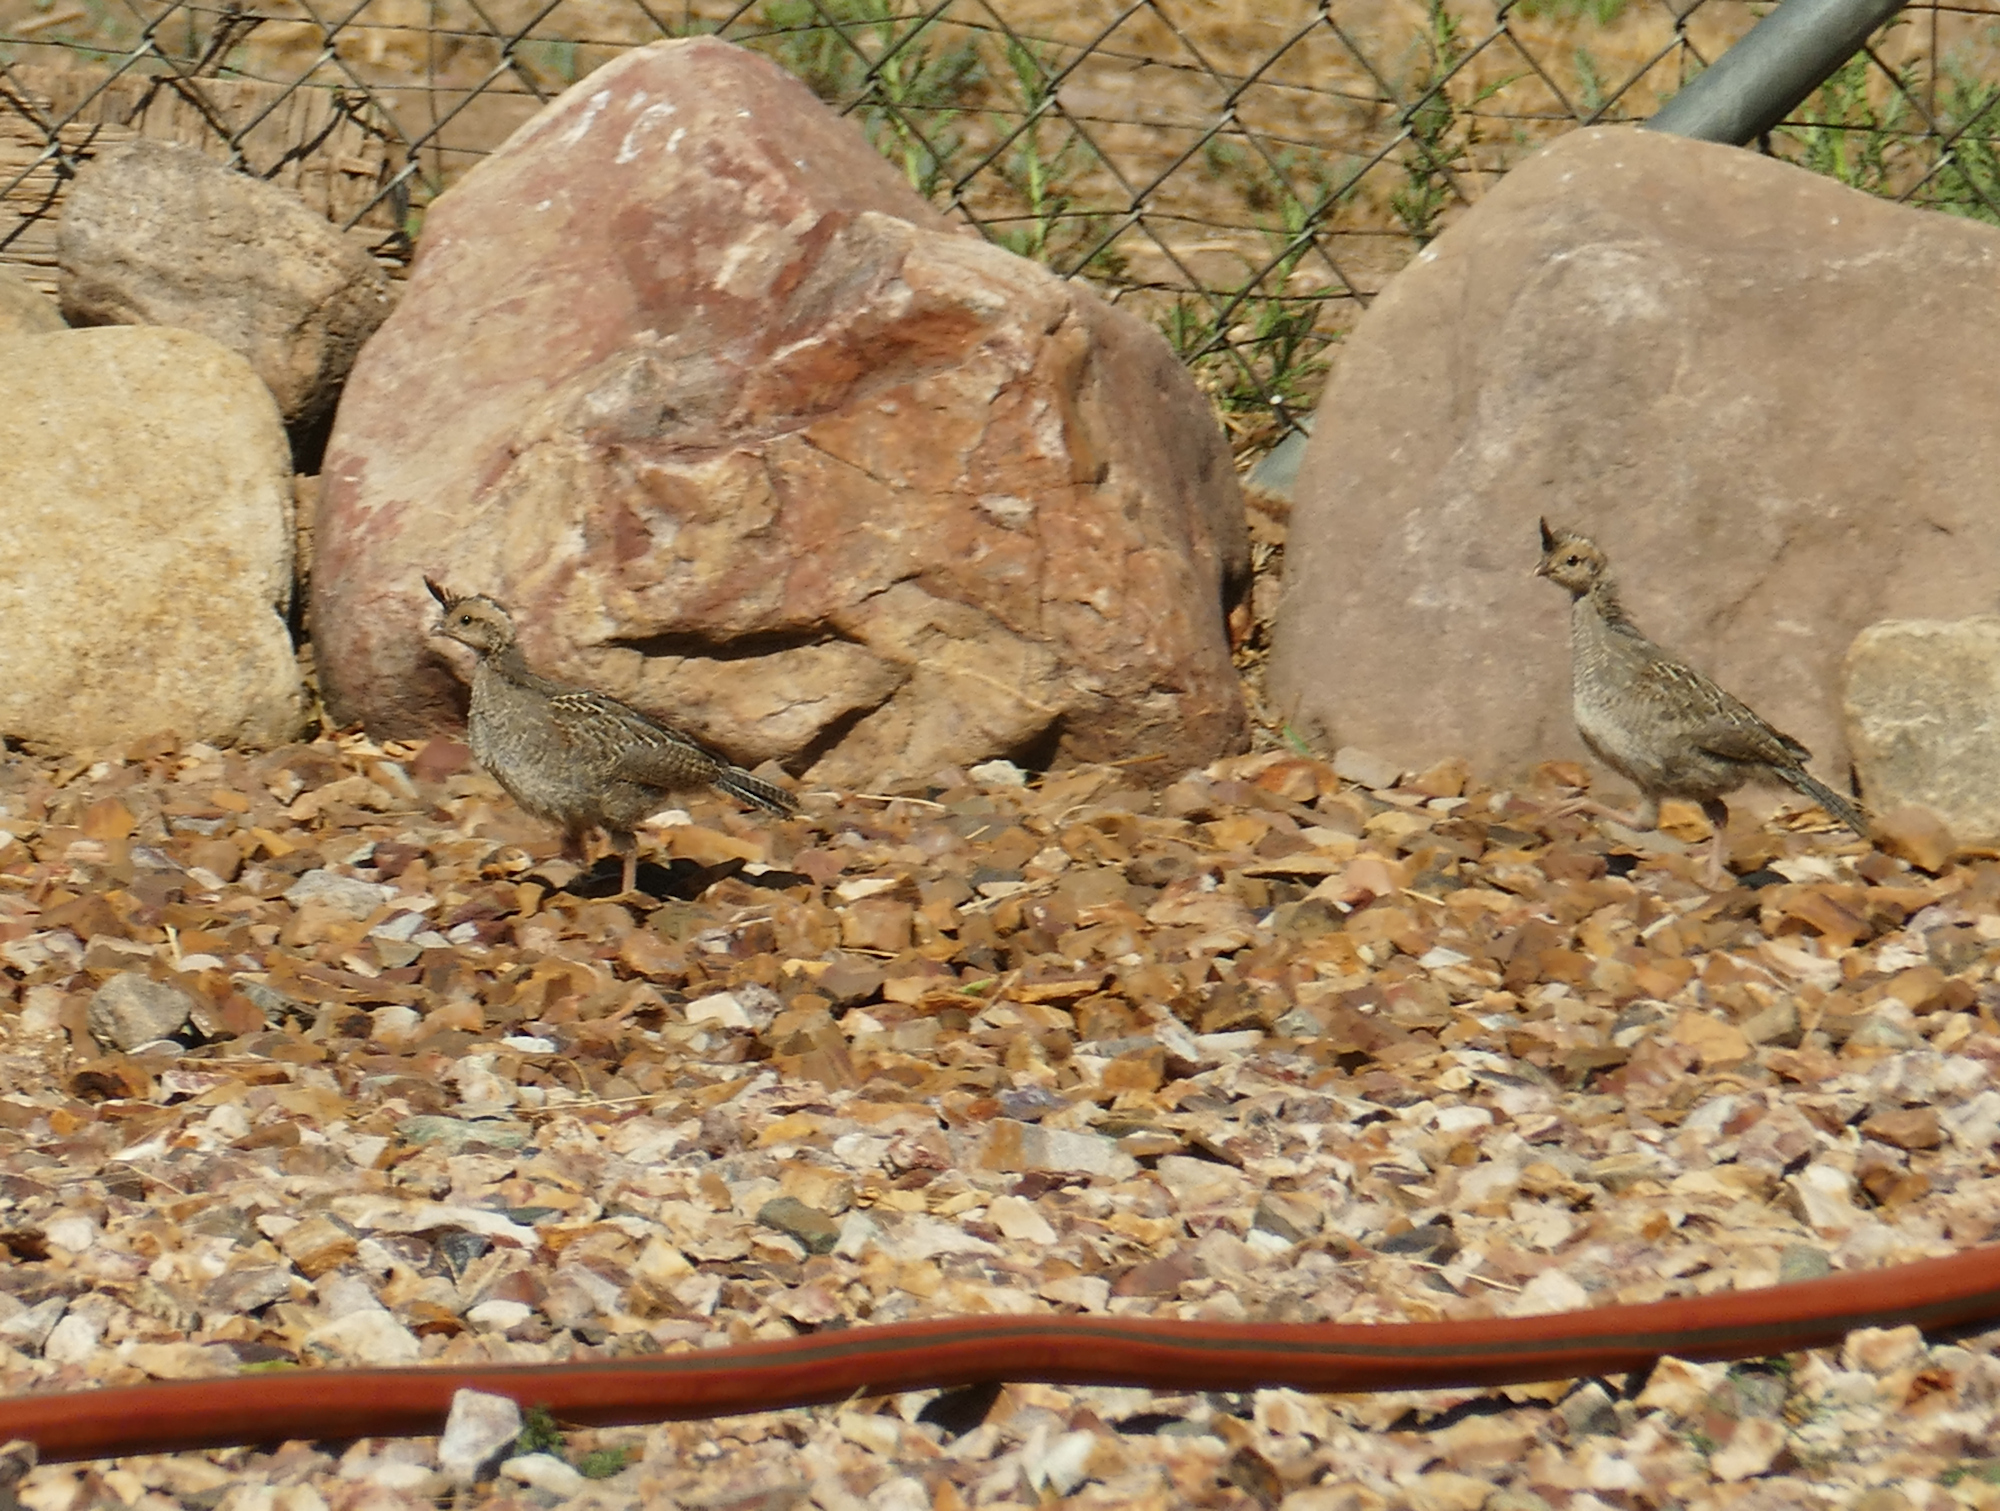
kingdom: Animalia
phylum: Chordata
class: Aves
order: Galliformes
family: Odontophoridae
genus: Callipepla
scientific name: Callipepla gambelii
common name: Gambel's quail
